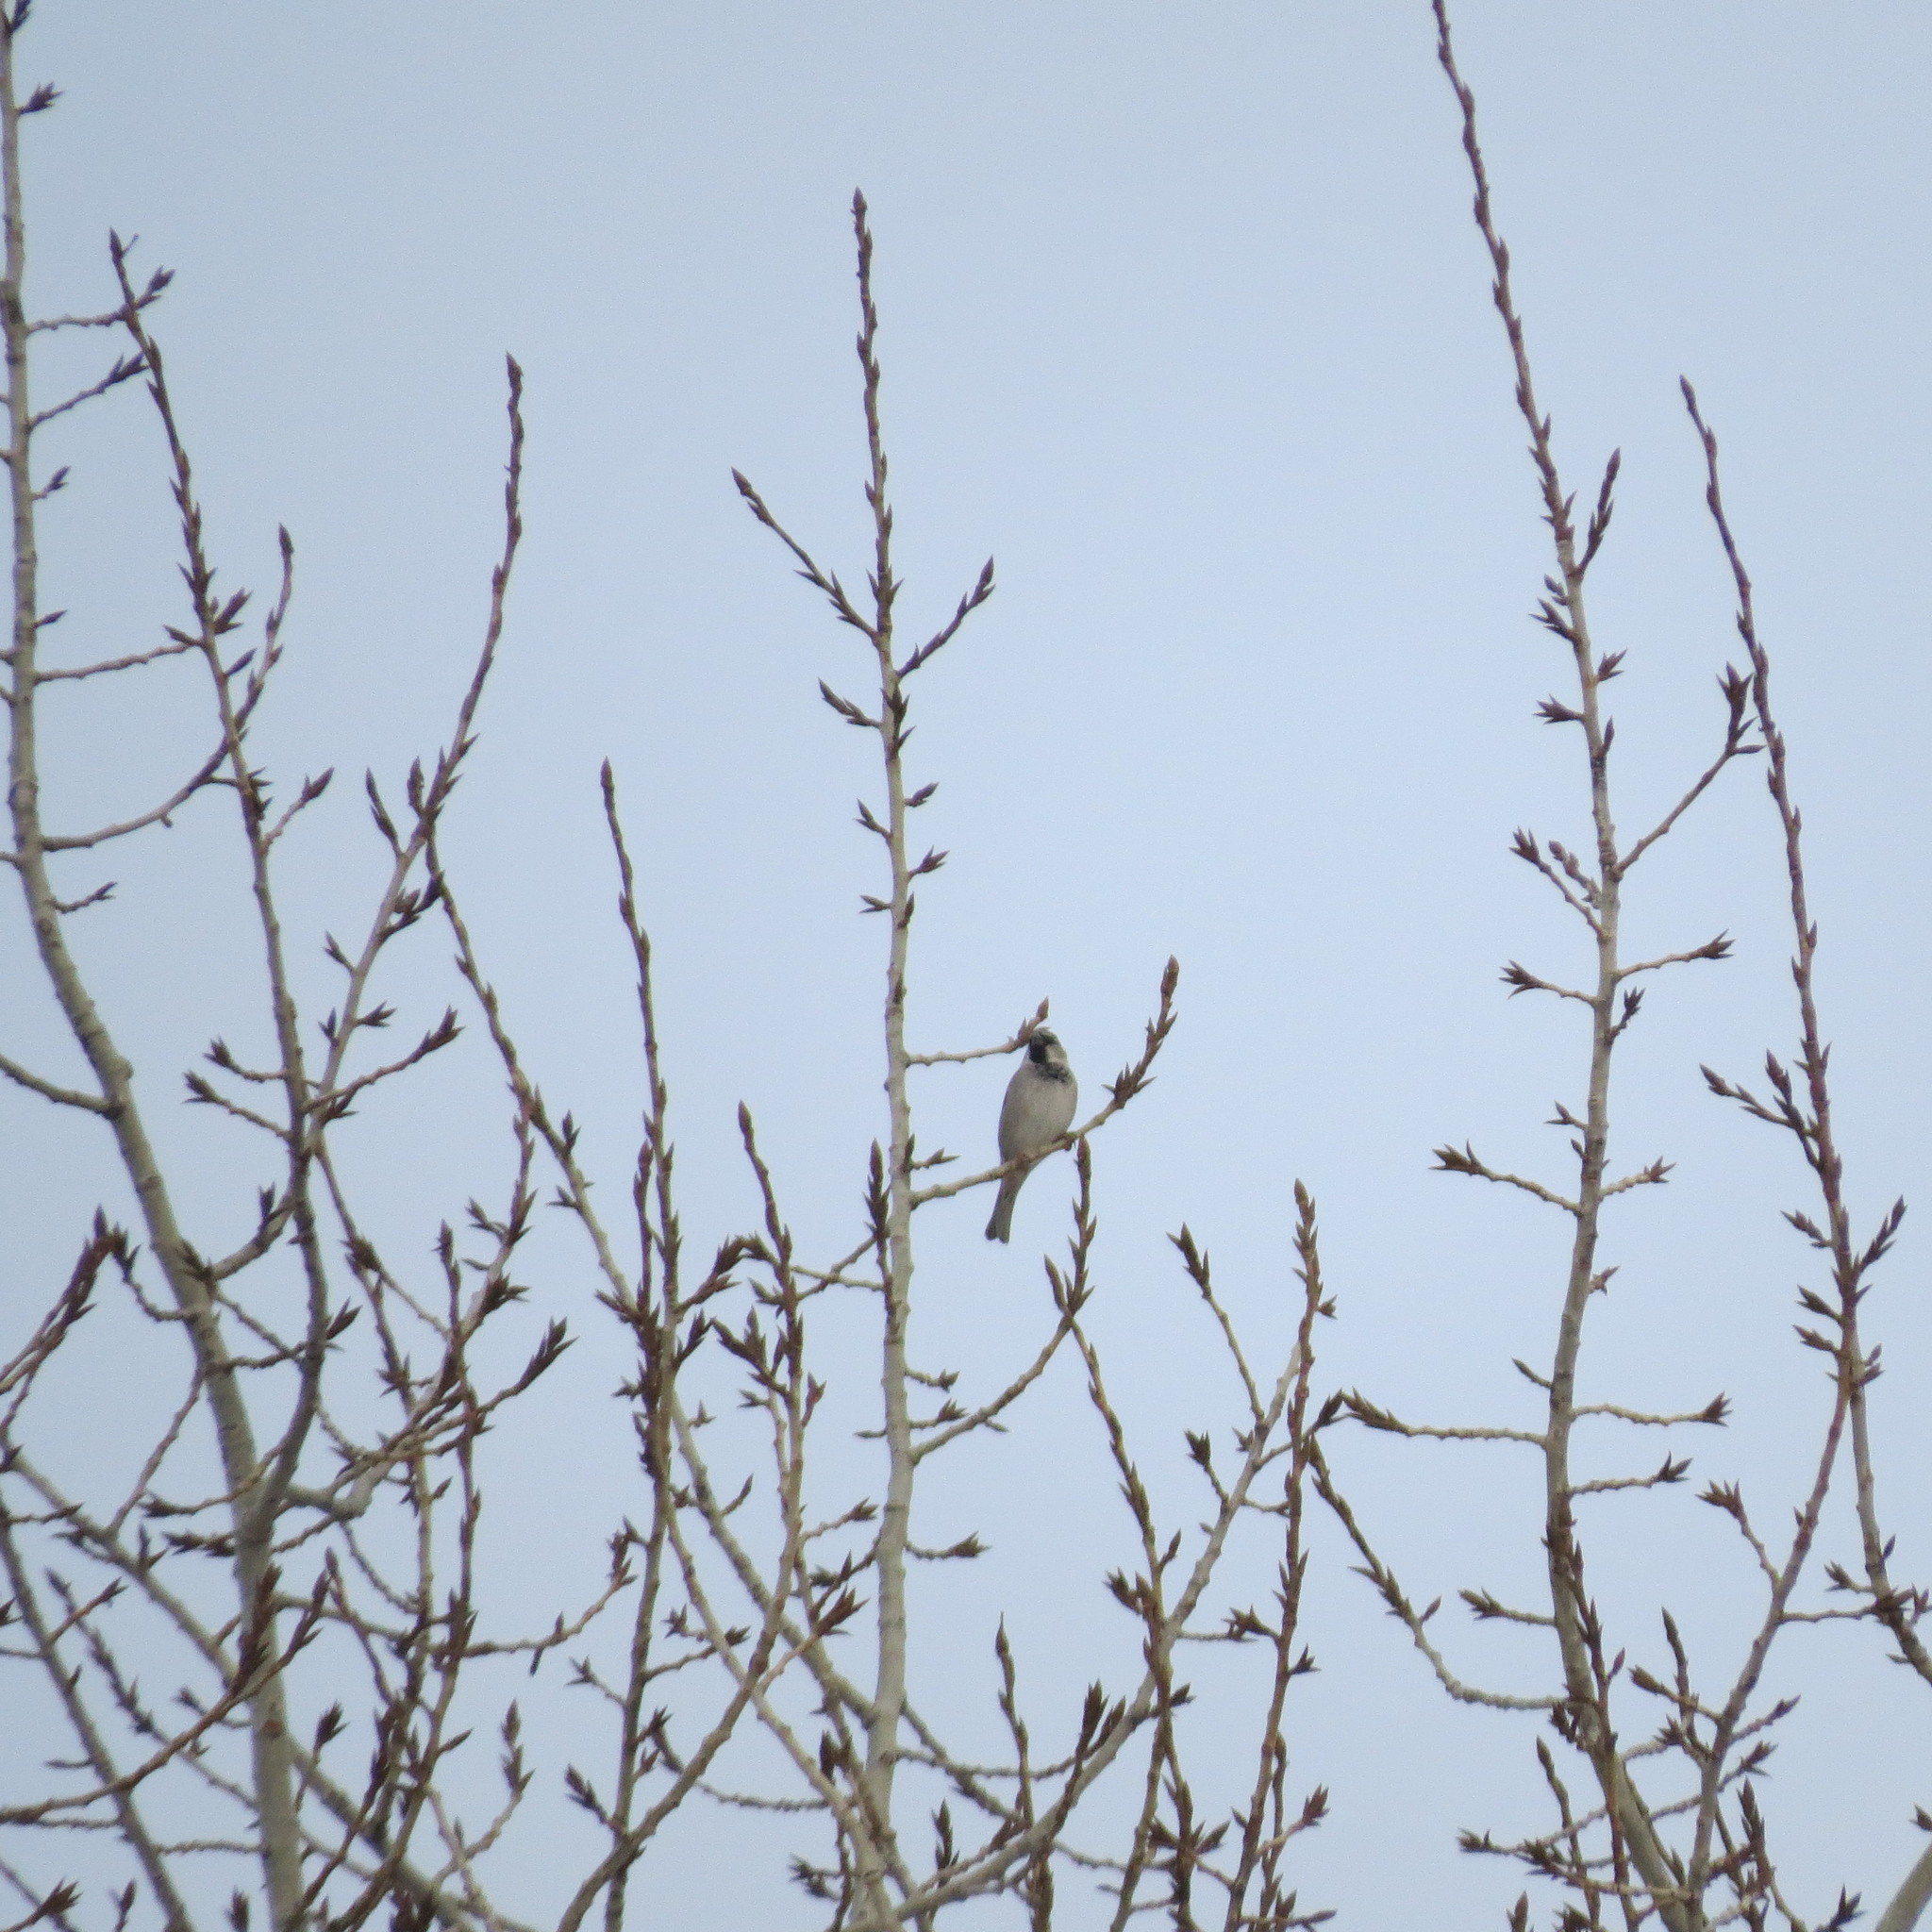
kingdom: Animalia
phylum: Chordata
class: Aves
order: Passeriformes
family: Passeridae
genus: Passer
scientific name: Passer domesticus
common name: House sparrow
